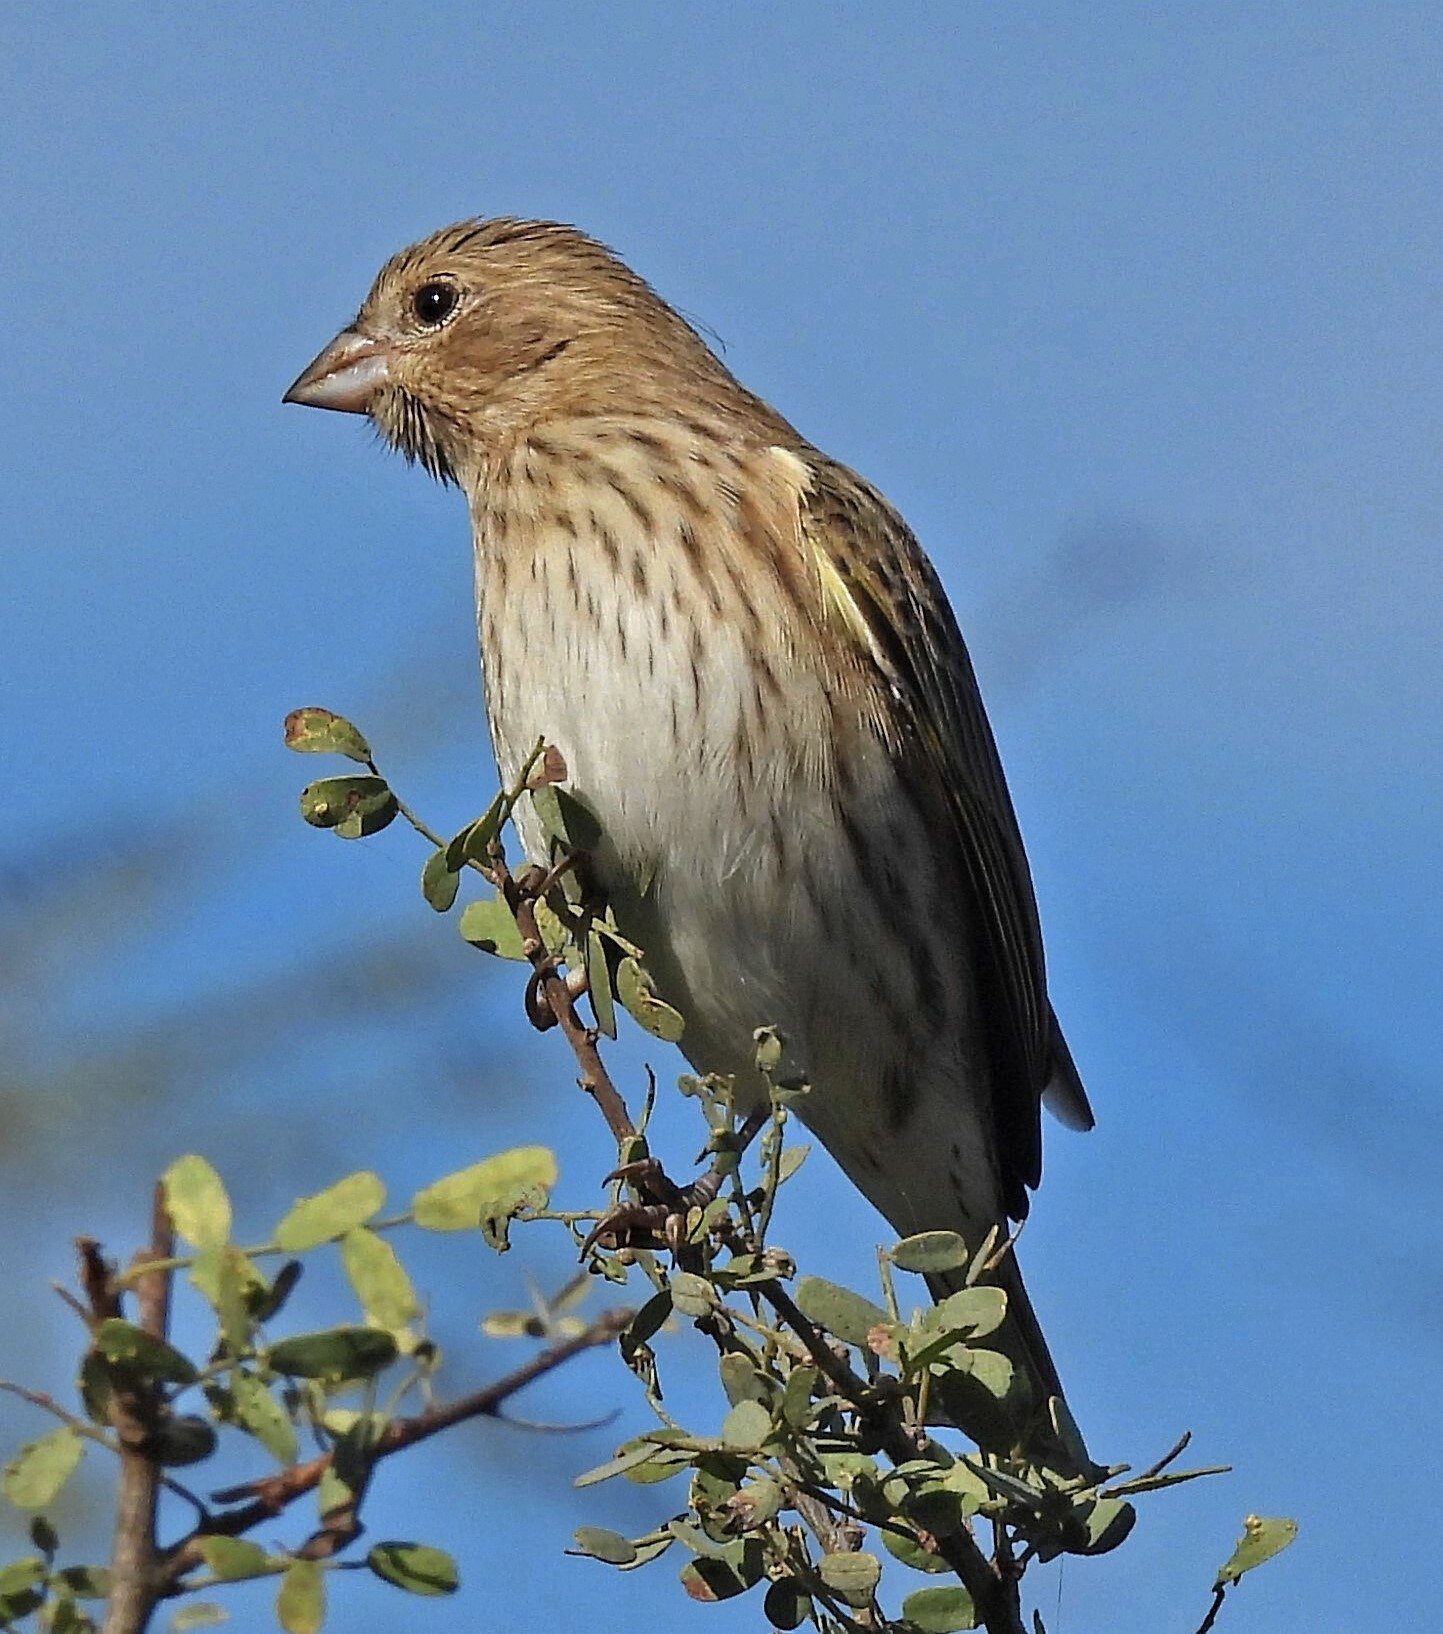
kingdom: Animalia
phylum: Chordata
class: Aves
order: Passeriformes
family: Thraupidae
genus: Sicalis
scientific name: Sicalis flaveola
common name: Saffron finch
